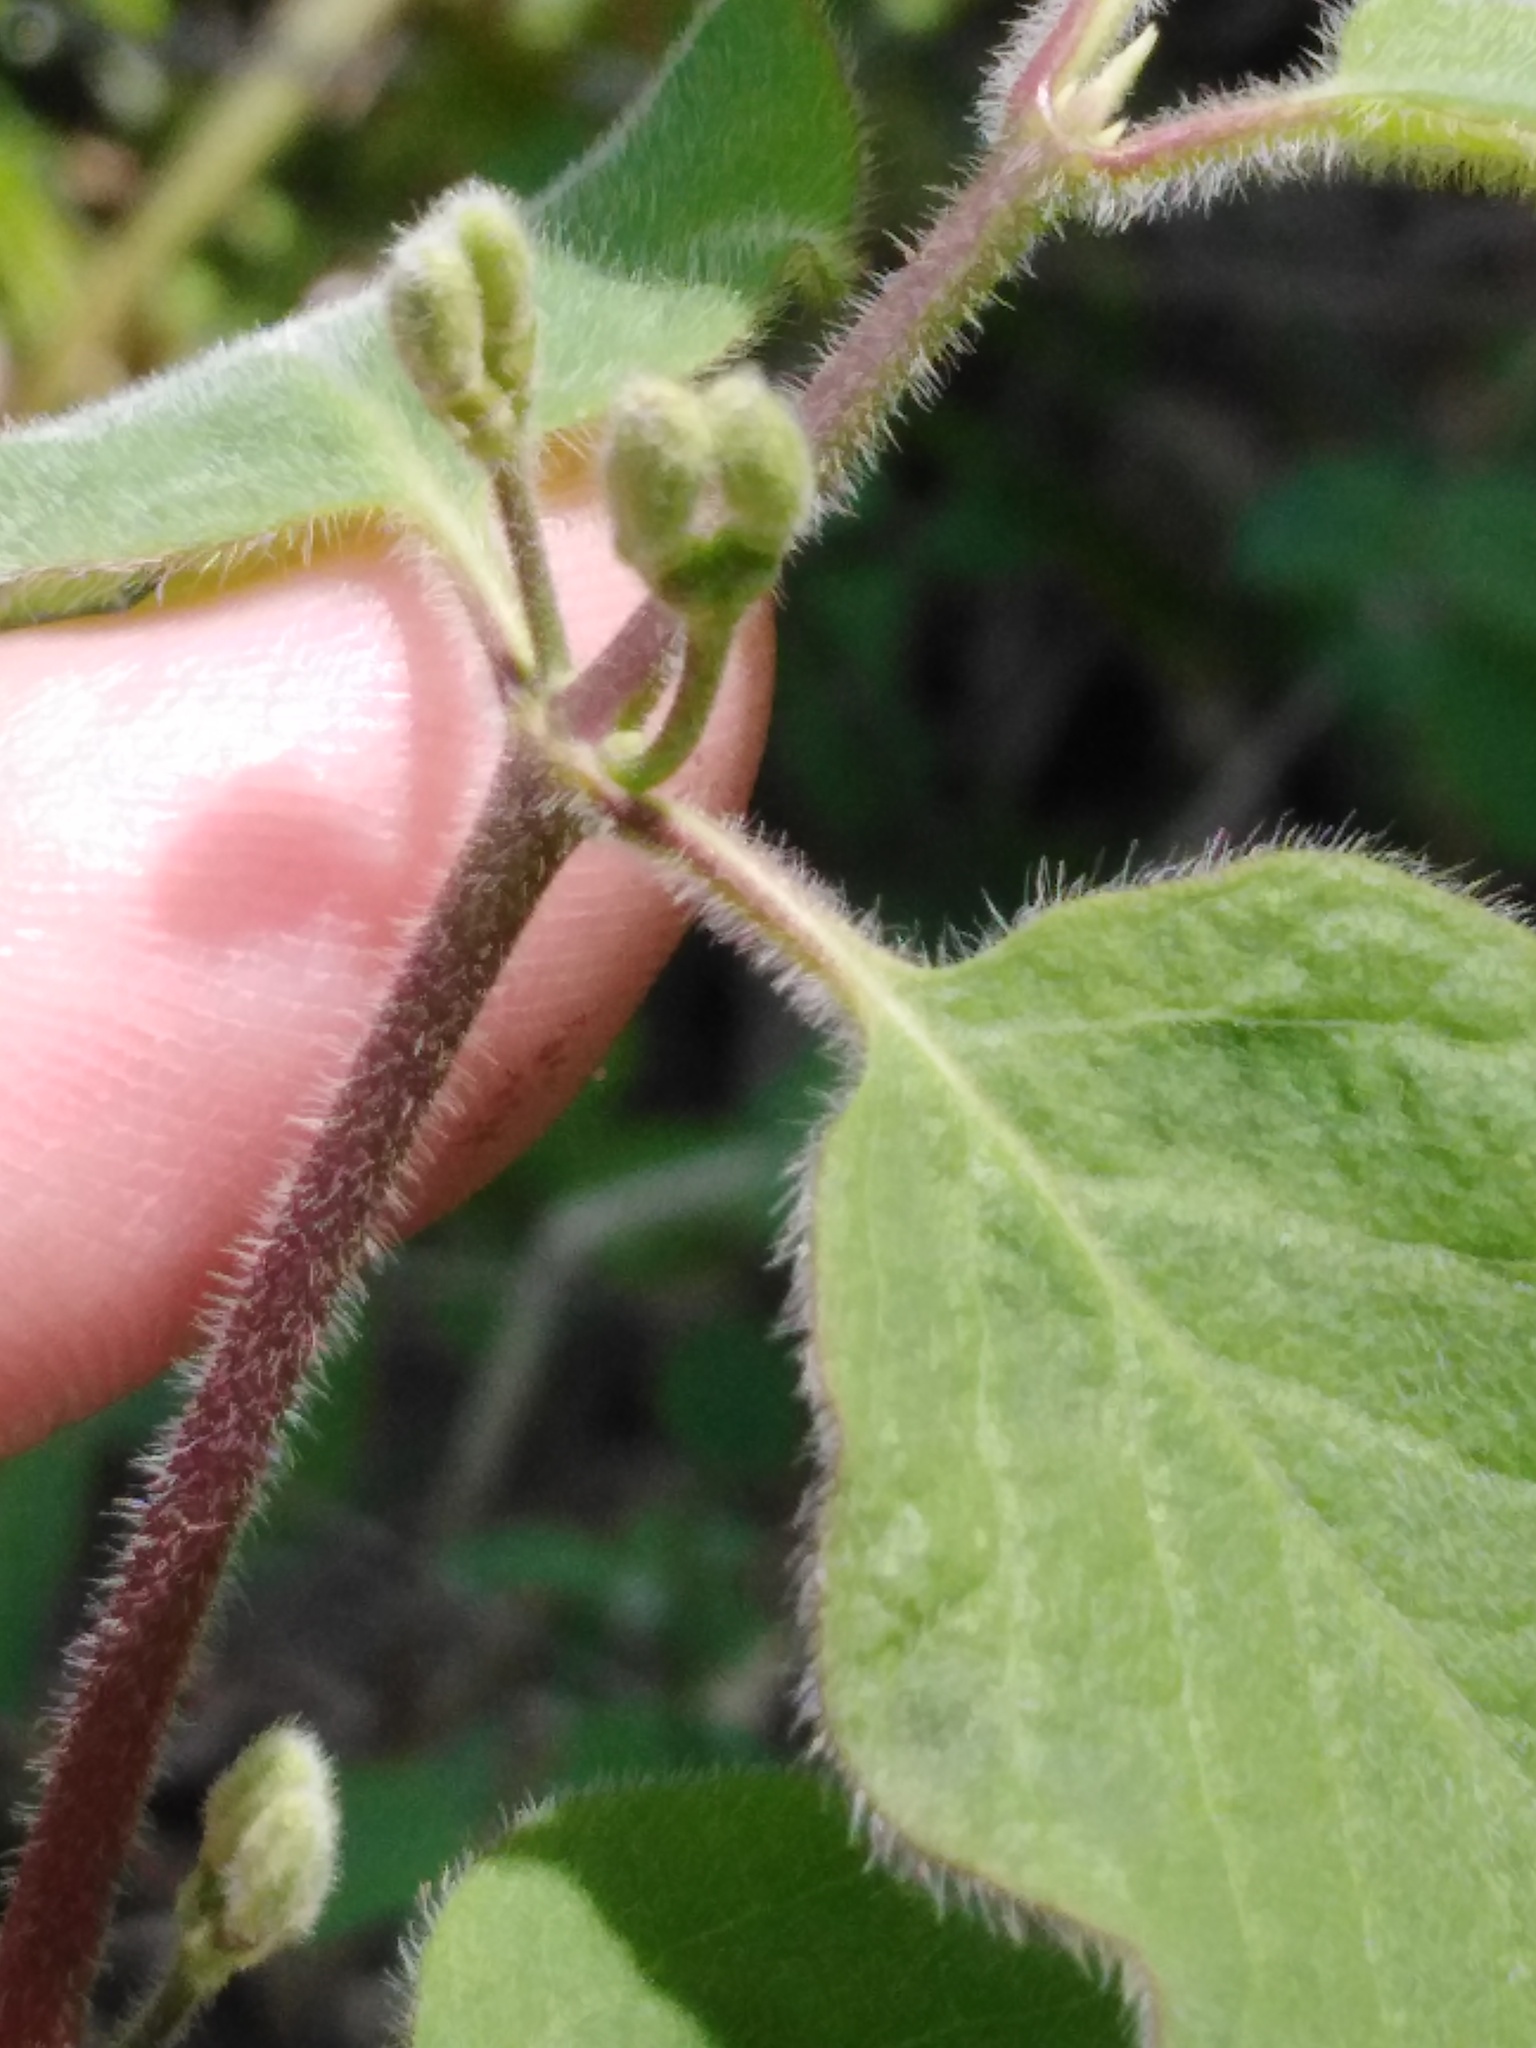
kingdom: Plantae
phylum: Tracheophyta
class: Magnoliopsida
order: Dipsacales
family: Caprifoliaceae
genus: Lonicera
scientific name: Lonicera xylosteum
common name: Fly honeysuckle
